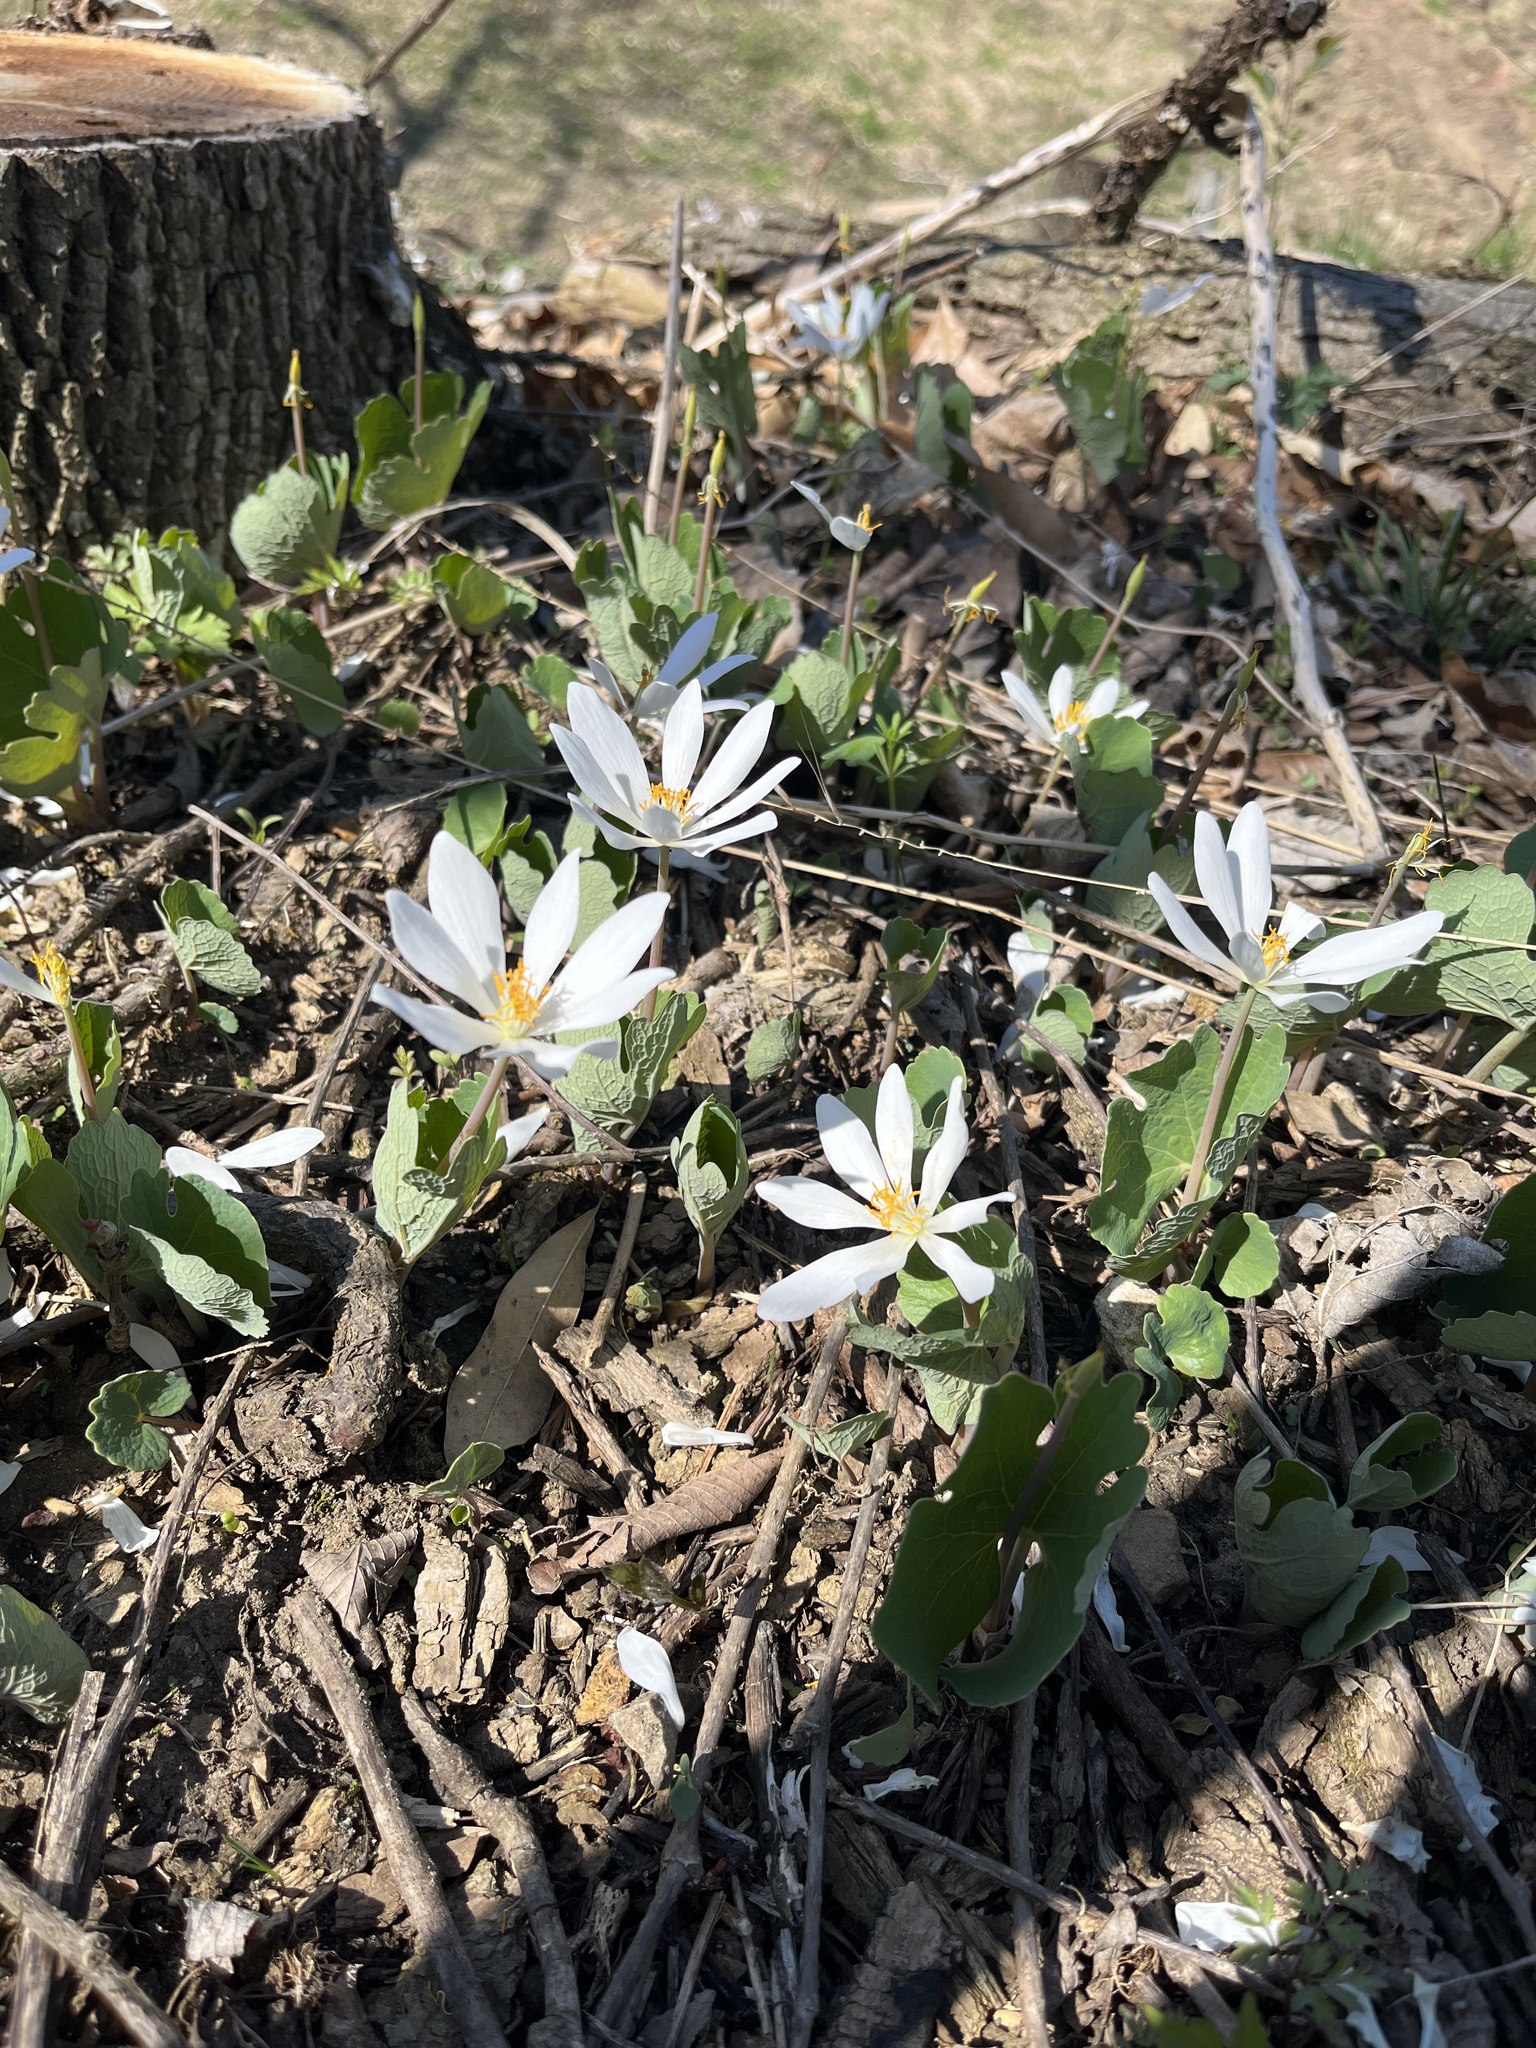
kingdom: Plantae
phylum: Tracheophyta
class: Magnoliopsida
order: Ranunculales
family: Papaveraceae
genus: Sanguinaria
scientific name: Sanguinaria canadensis
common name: Bloodroot
